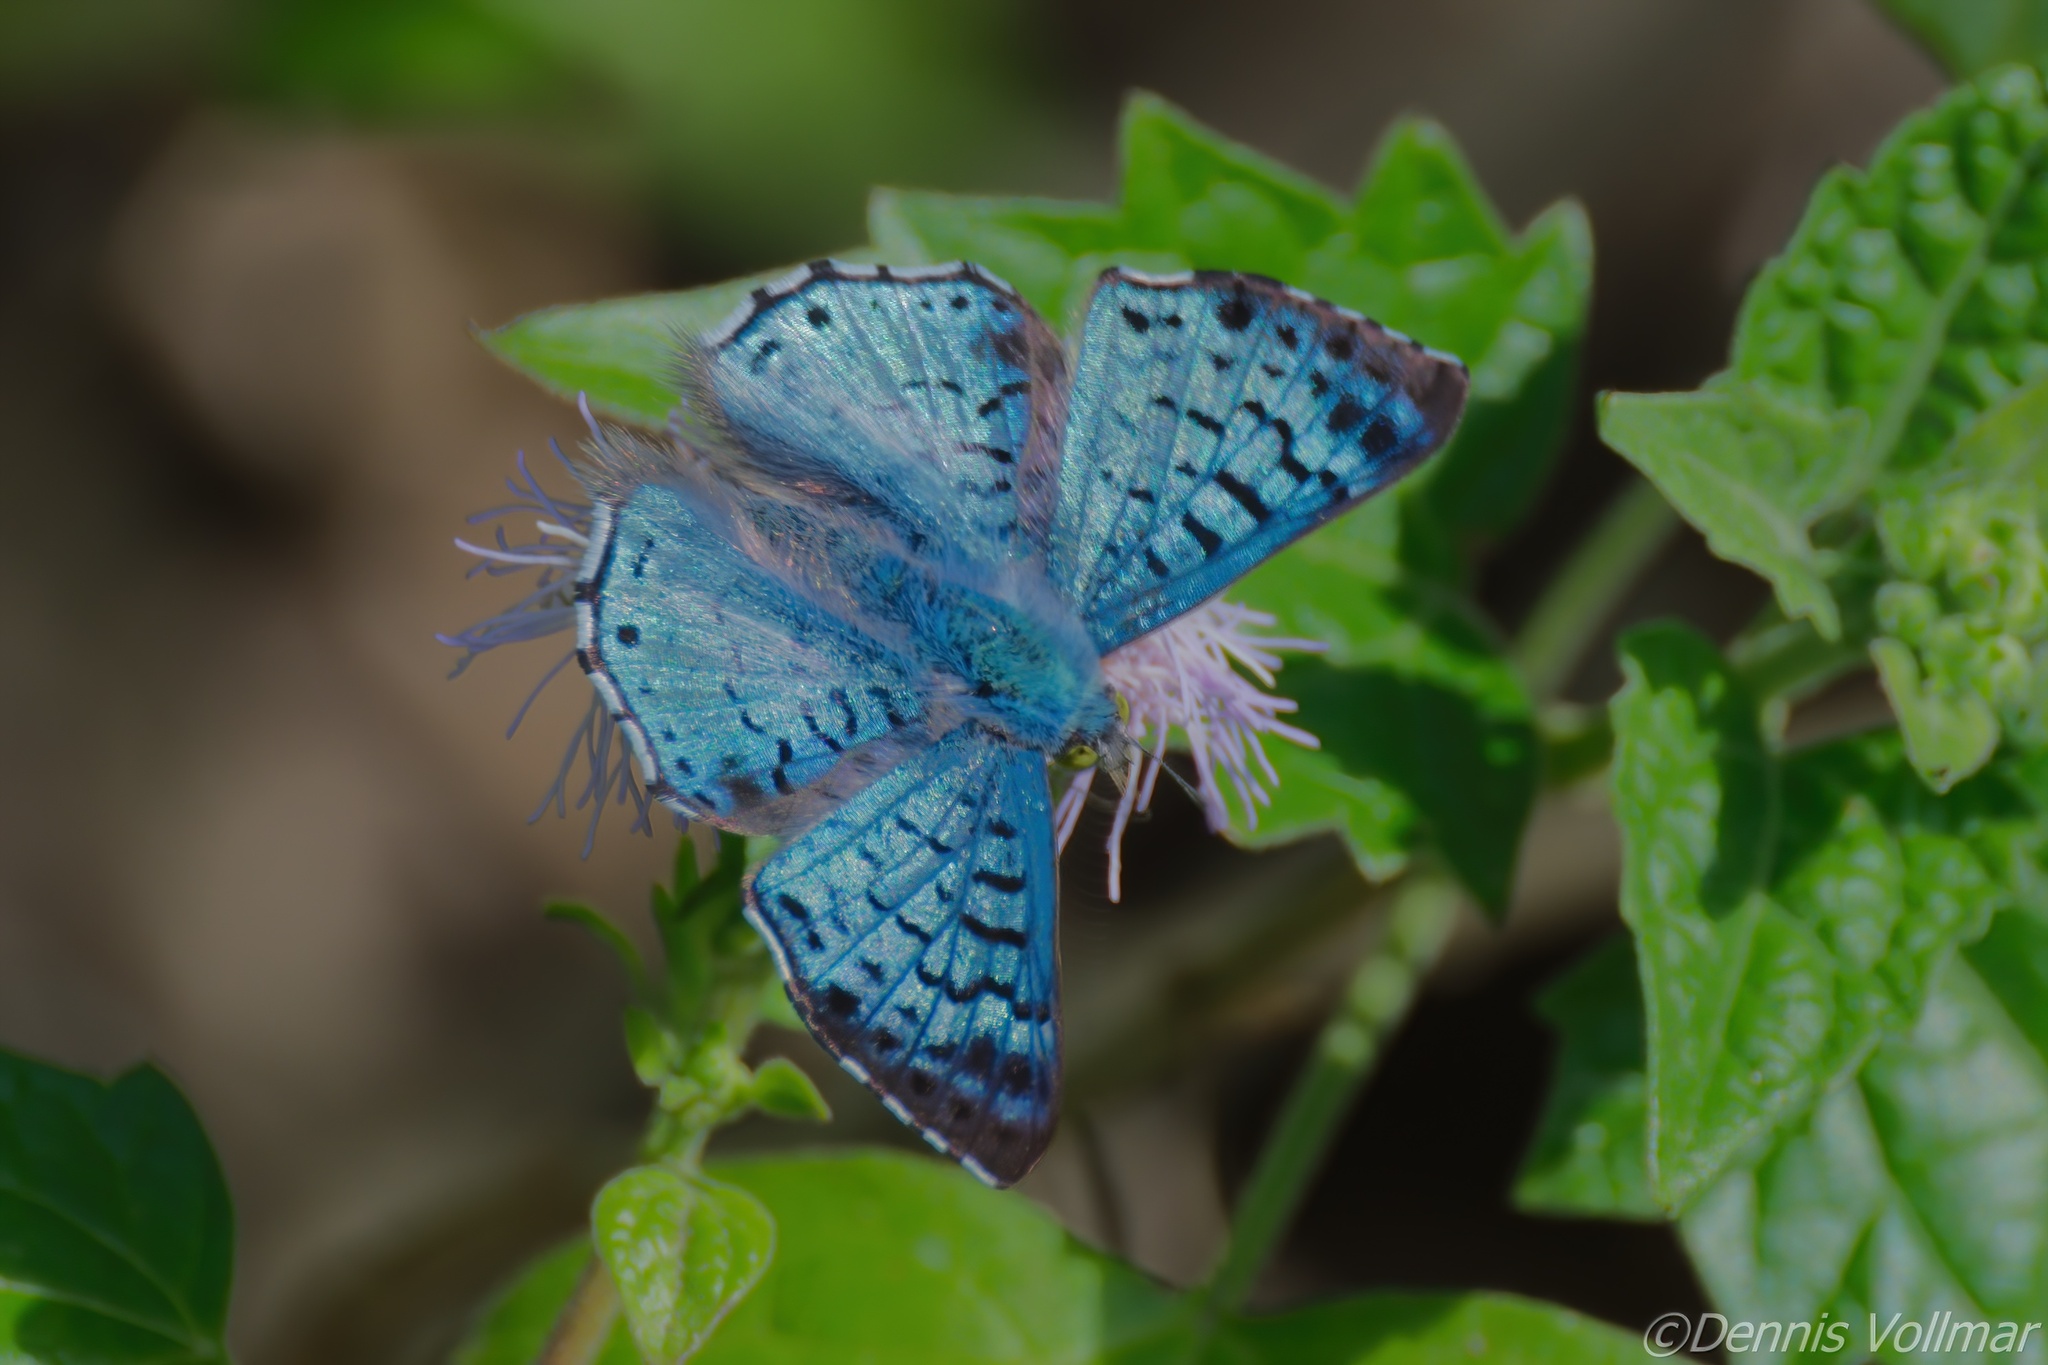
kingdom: Animalia
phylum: Arthropoda
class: Insecta
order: Lepidoptera
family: Riodinidae
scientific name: Riodinidae
